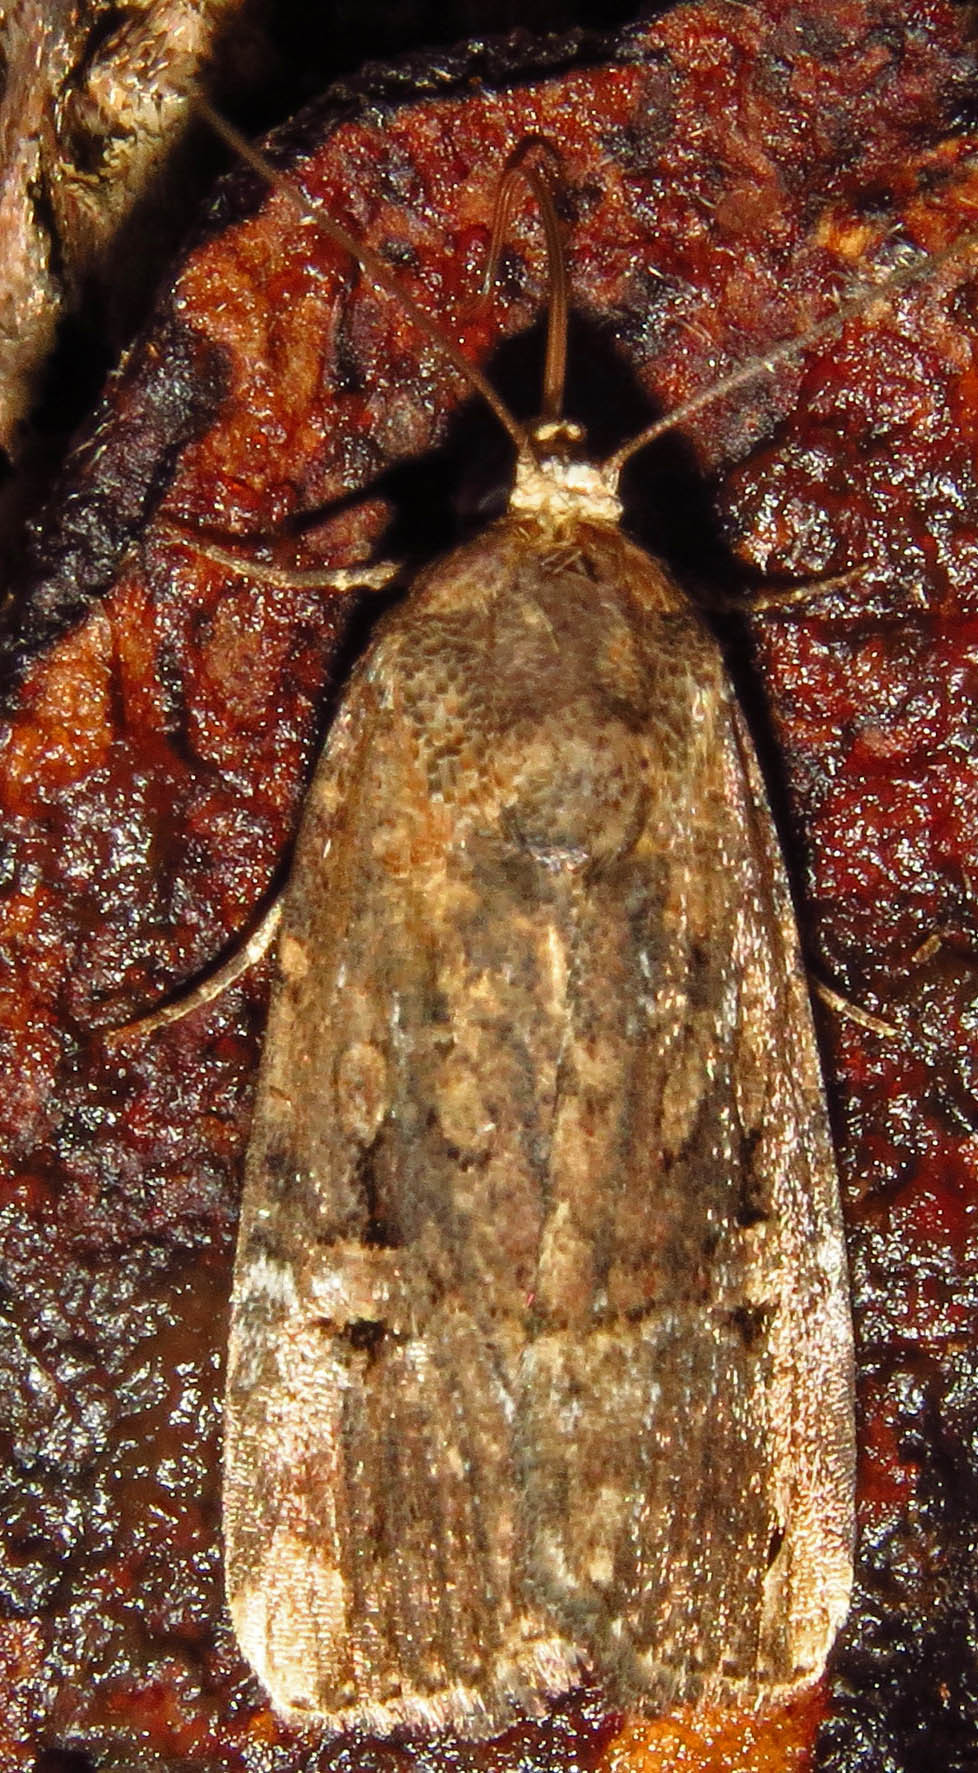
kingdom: Animalia
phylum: Arthropoda
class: Insecta
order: Lepidoptera
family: Noctuidae
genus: Elaphria
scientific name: Elaphria chalcedonia
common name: Chalcedony midget
